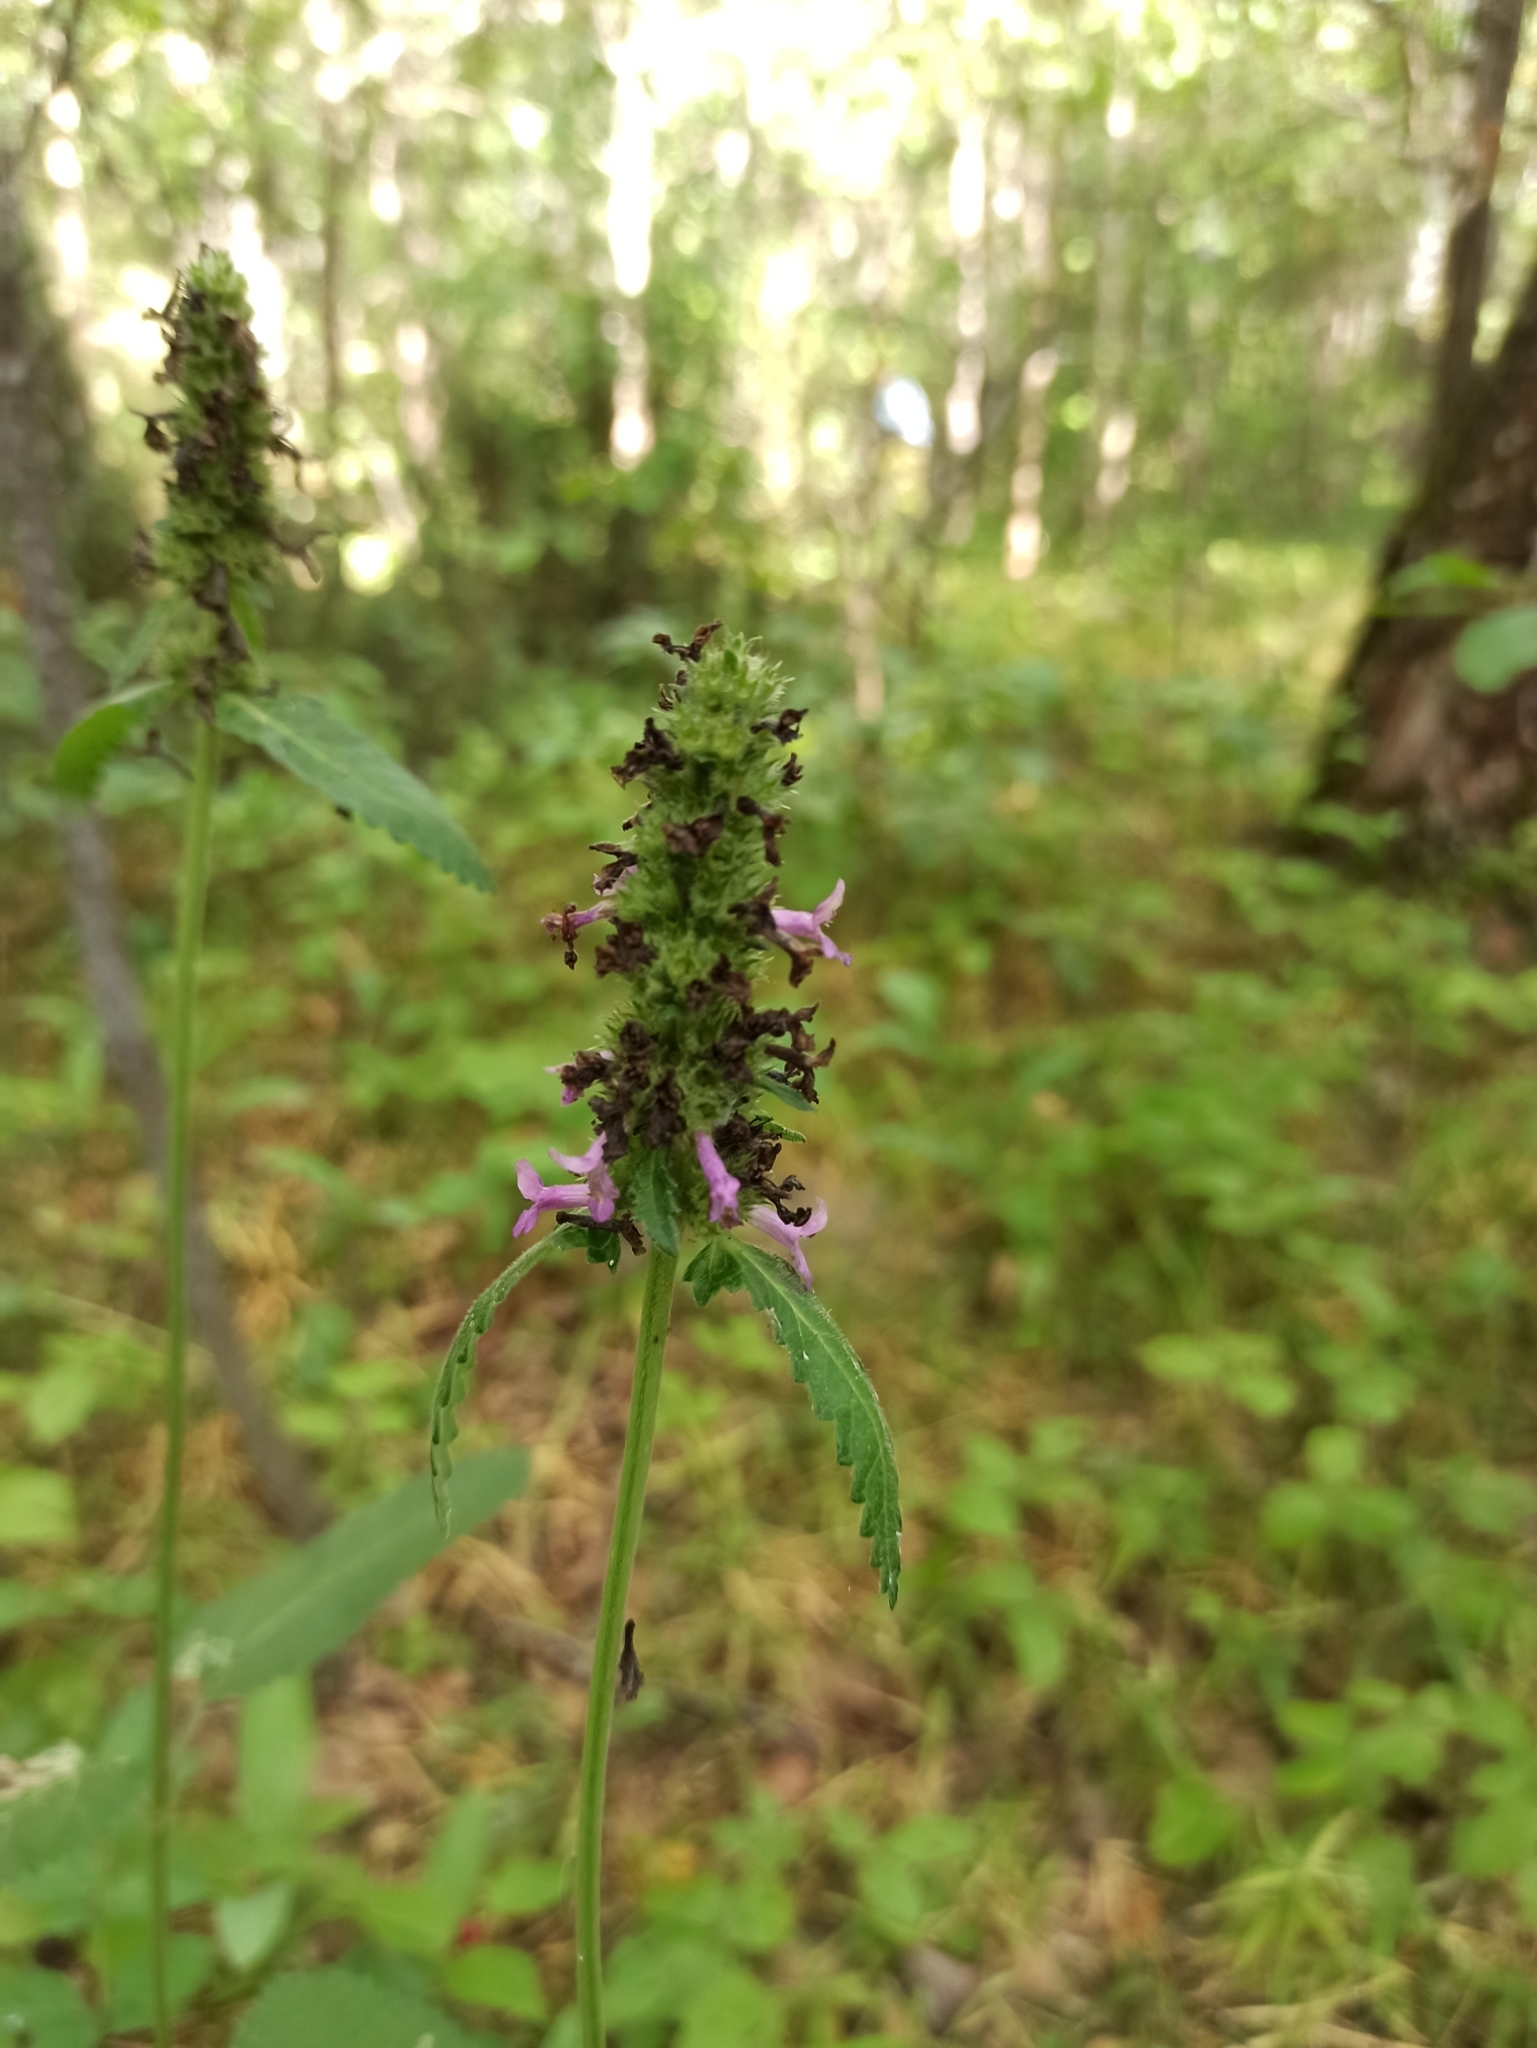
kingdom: Plantae
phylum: Tracheophyta
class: Magnoliopsida
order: Lamiales
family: Lamiaceae
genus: Betonica
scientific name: Betonica officinalis
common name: Bishop's-wort
